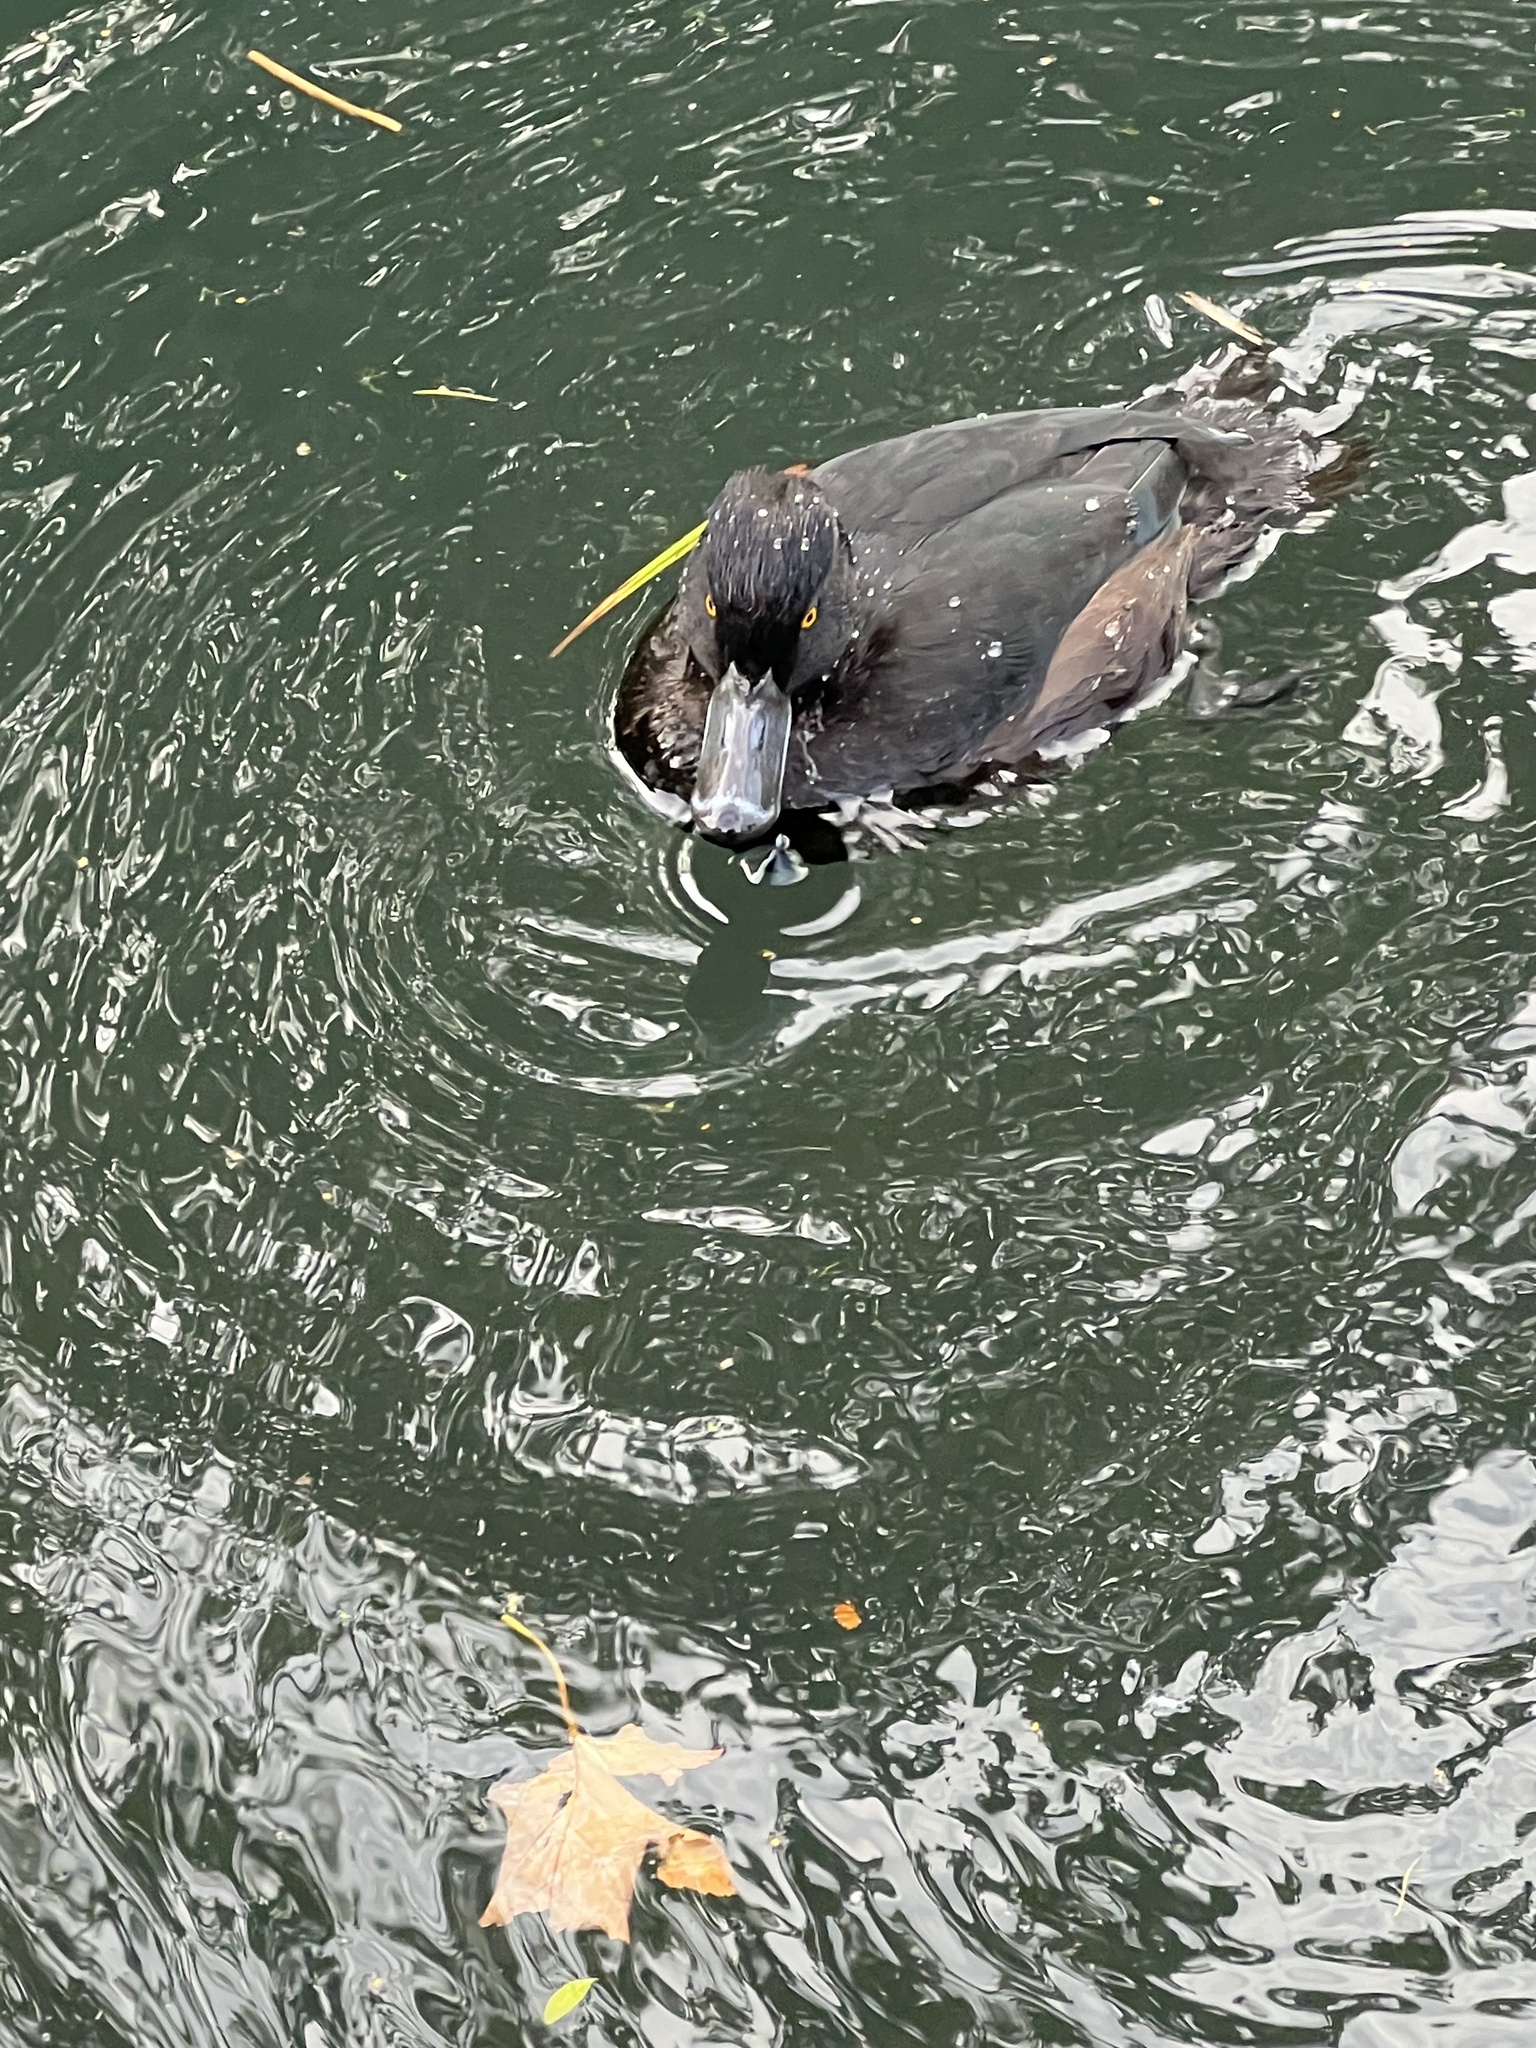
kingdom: Animalia
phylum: Chordata
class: Aves
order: Anseriformes
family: Anatidae
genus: Aythya
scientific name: Aythya novaeseelandiae
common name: New zealand scaup
